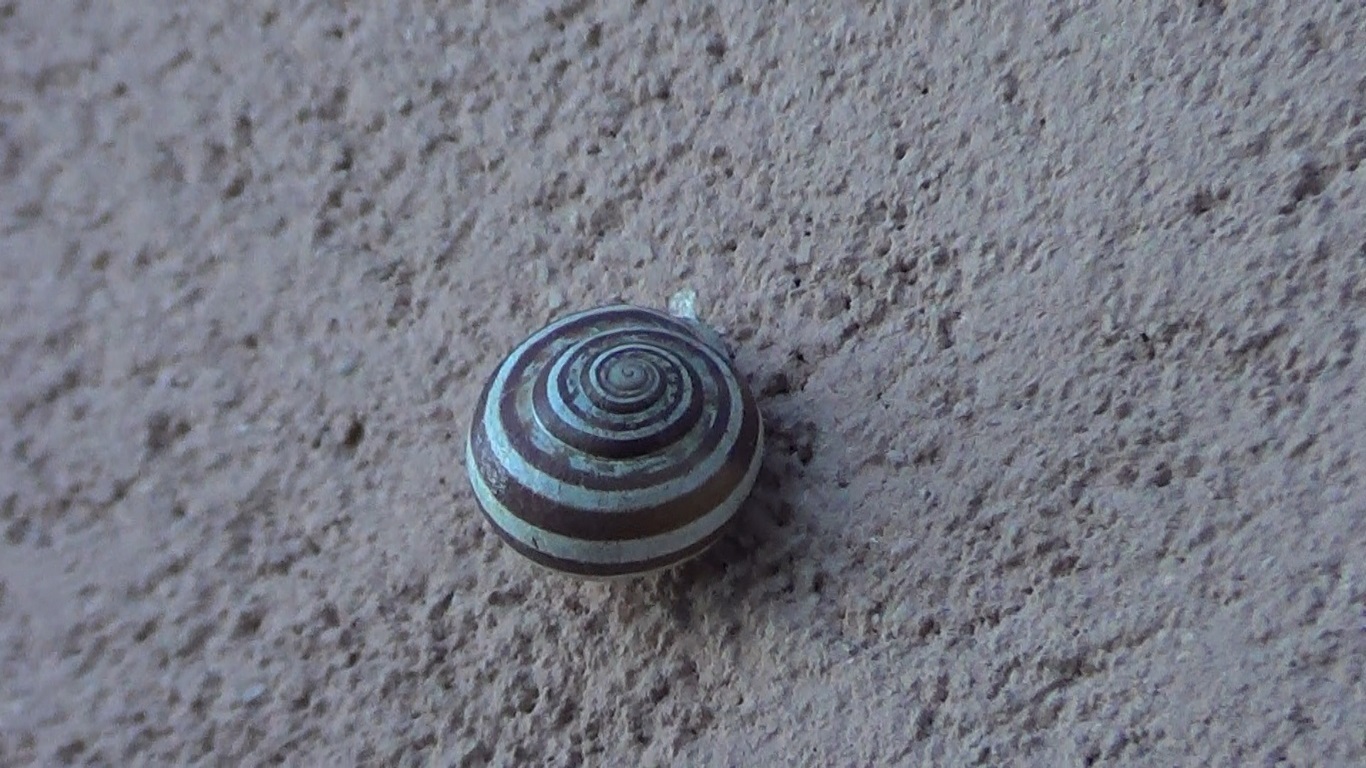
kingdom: Animalia
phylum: Mollusca
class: Gastropoda
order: Stylommatophora
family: Helicidae
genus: Eobania
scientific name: Eobania vermiculata
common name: Chocolateband snail
